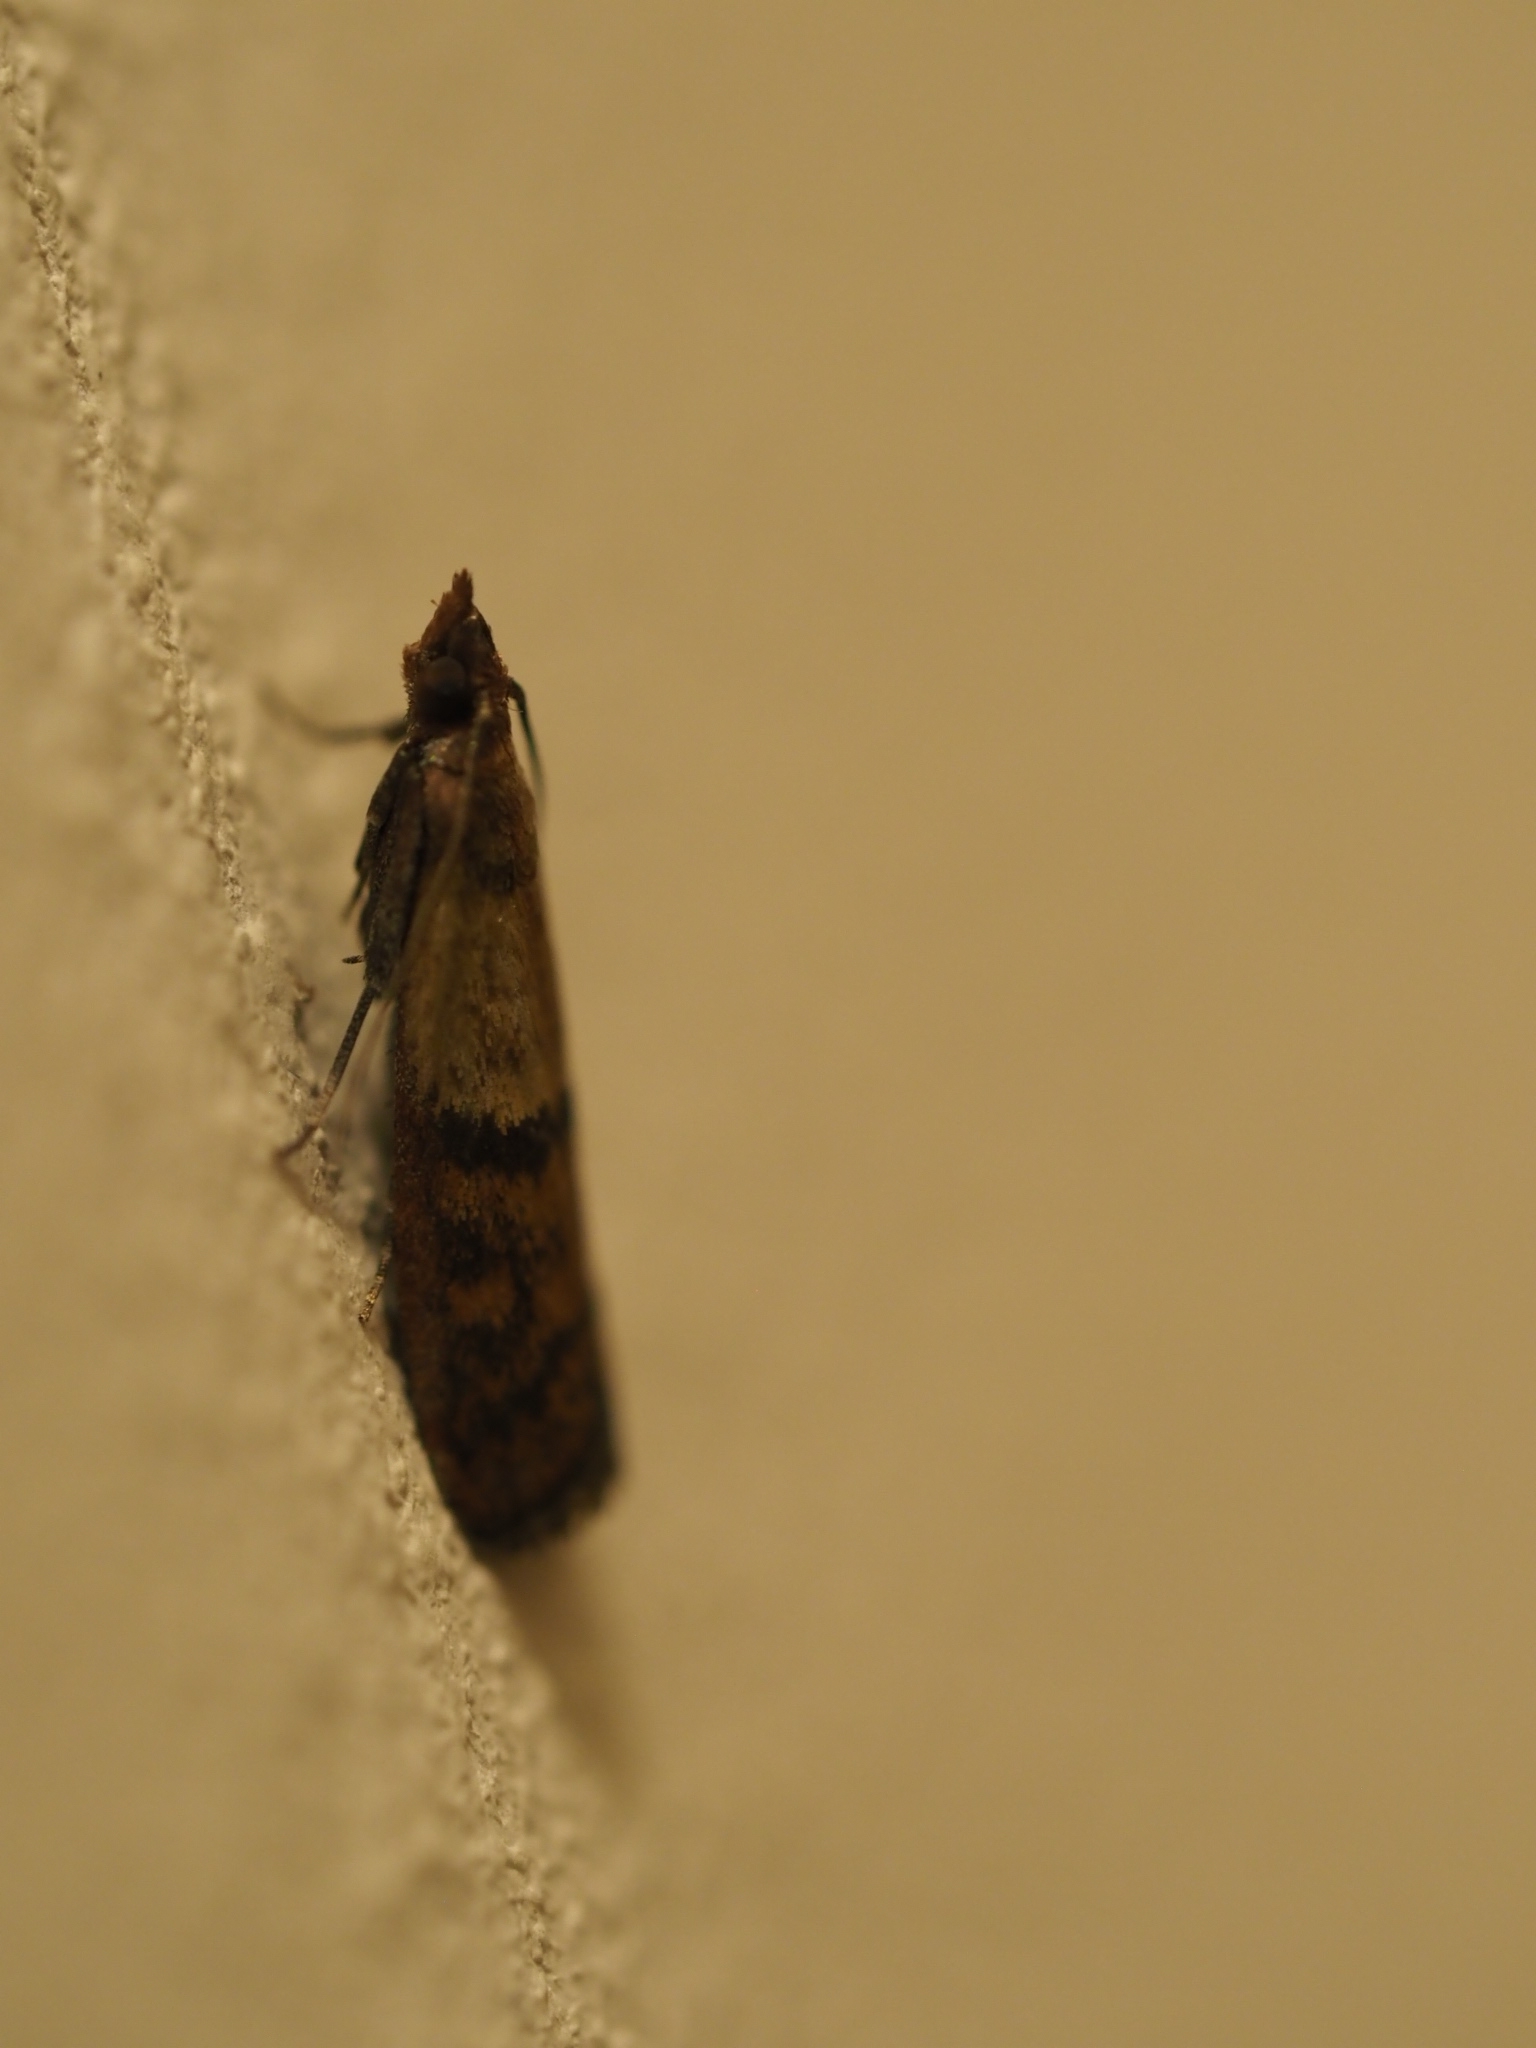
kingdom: Animalia
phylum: Arthropoda
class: Insecta
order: Lepidoptera
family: Pyralidae
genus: Plodia
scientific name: Plodia interpunctella
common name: Indian meal moth
